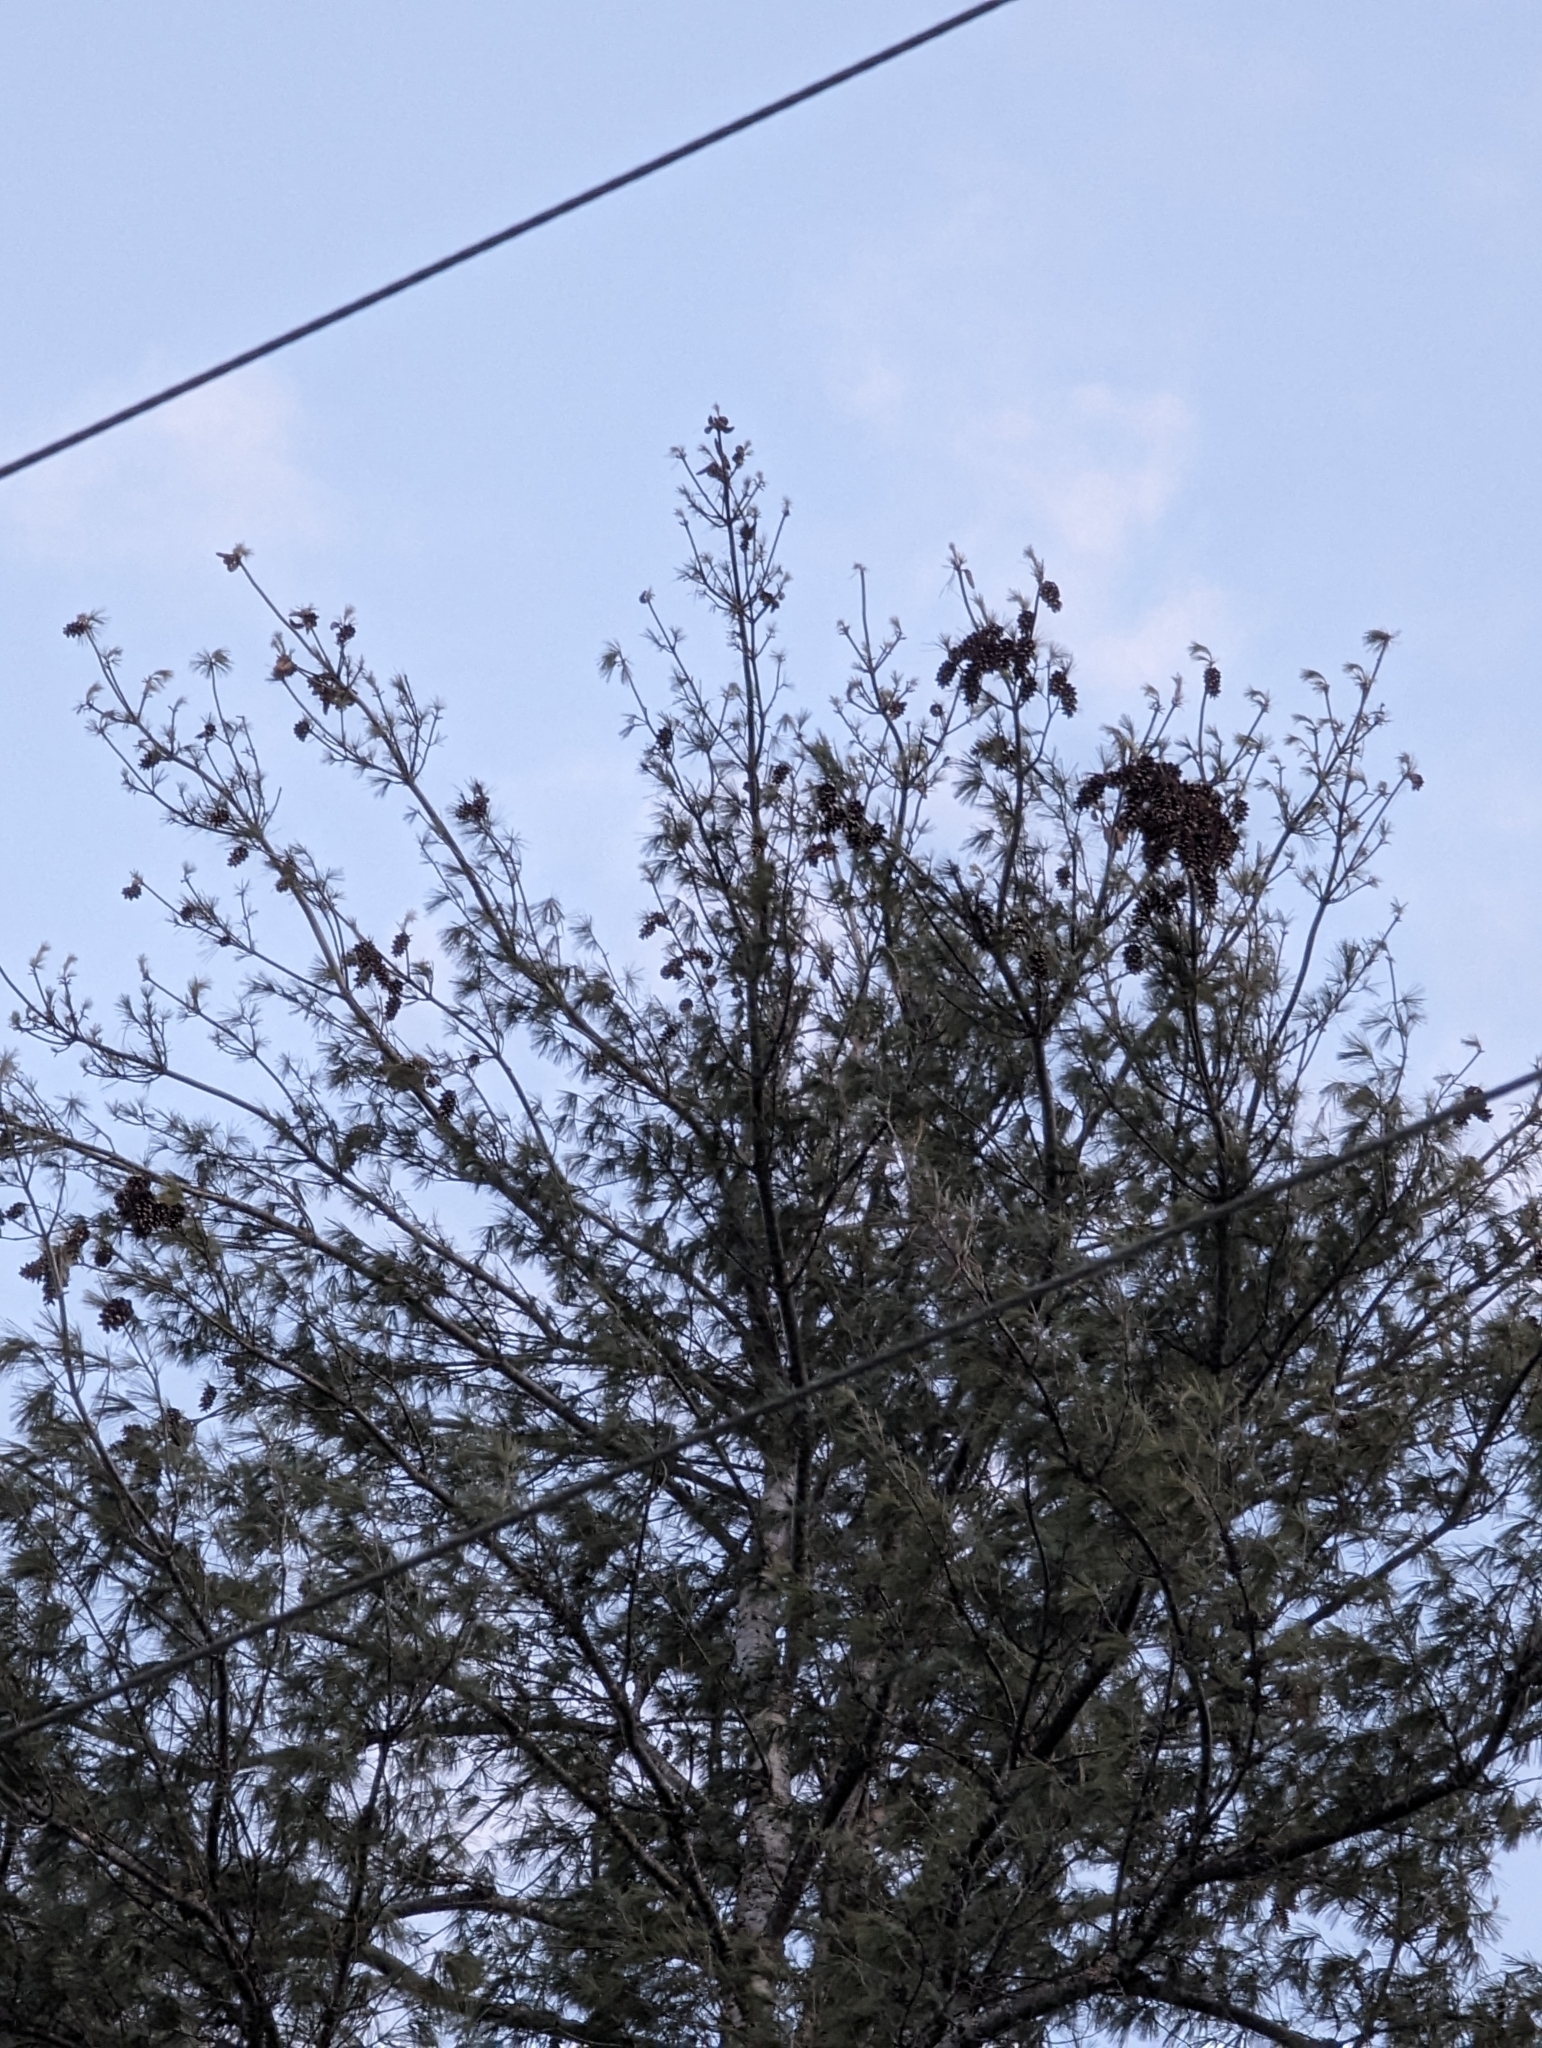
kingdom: Plantae
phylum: Tracheophyta
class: Pinopsida
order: Pinales
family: Pinaceae
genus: Pinus
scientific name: Pinus strobus
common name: Weymouth pine
